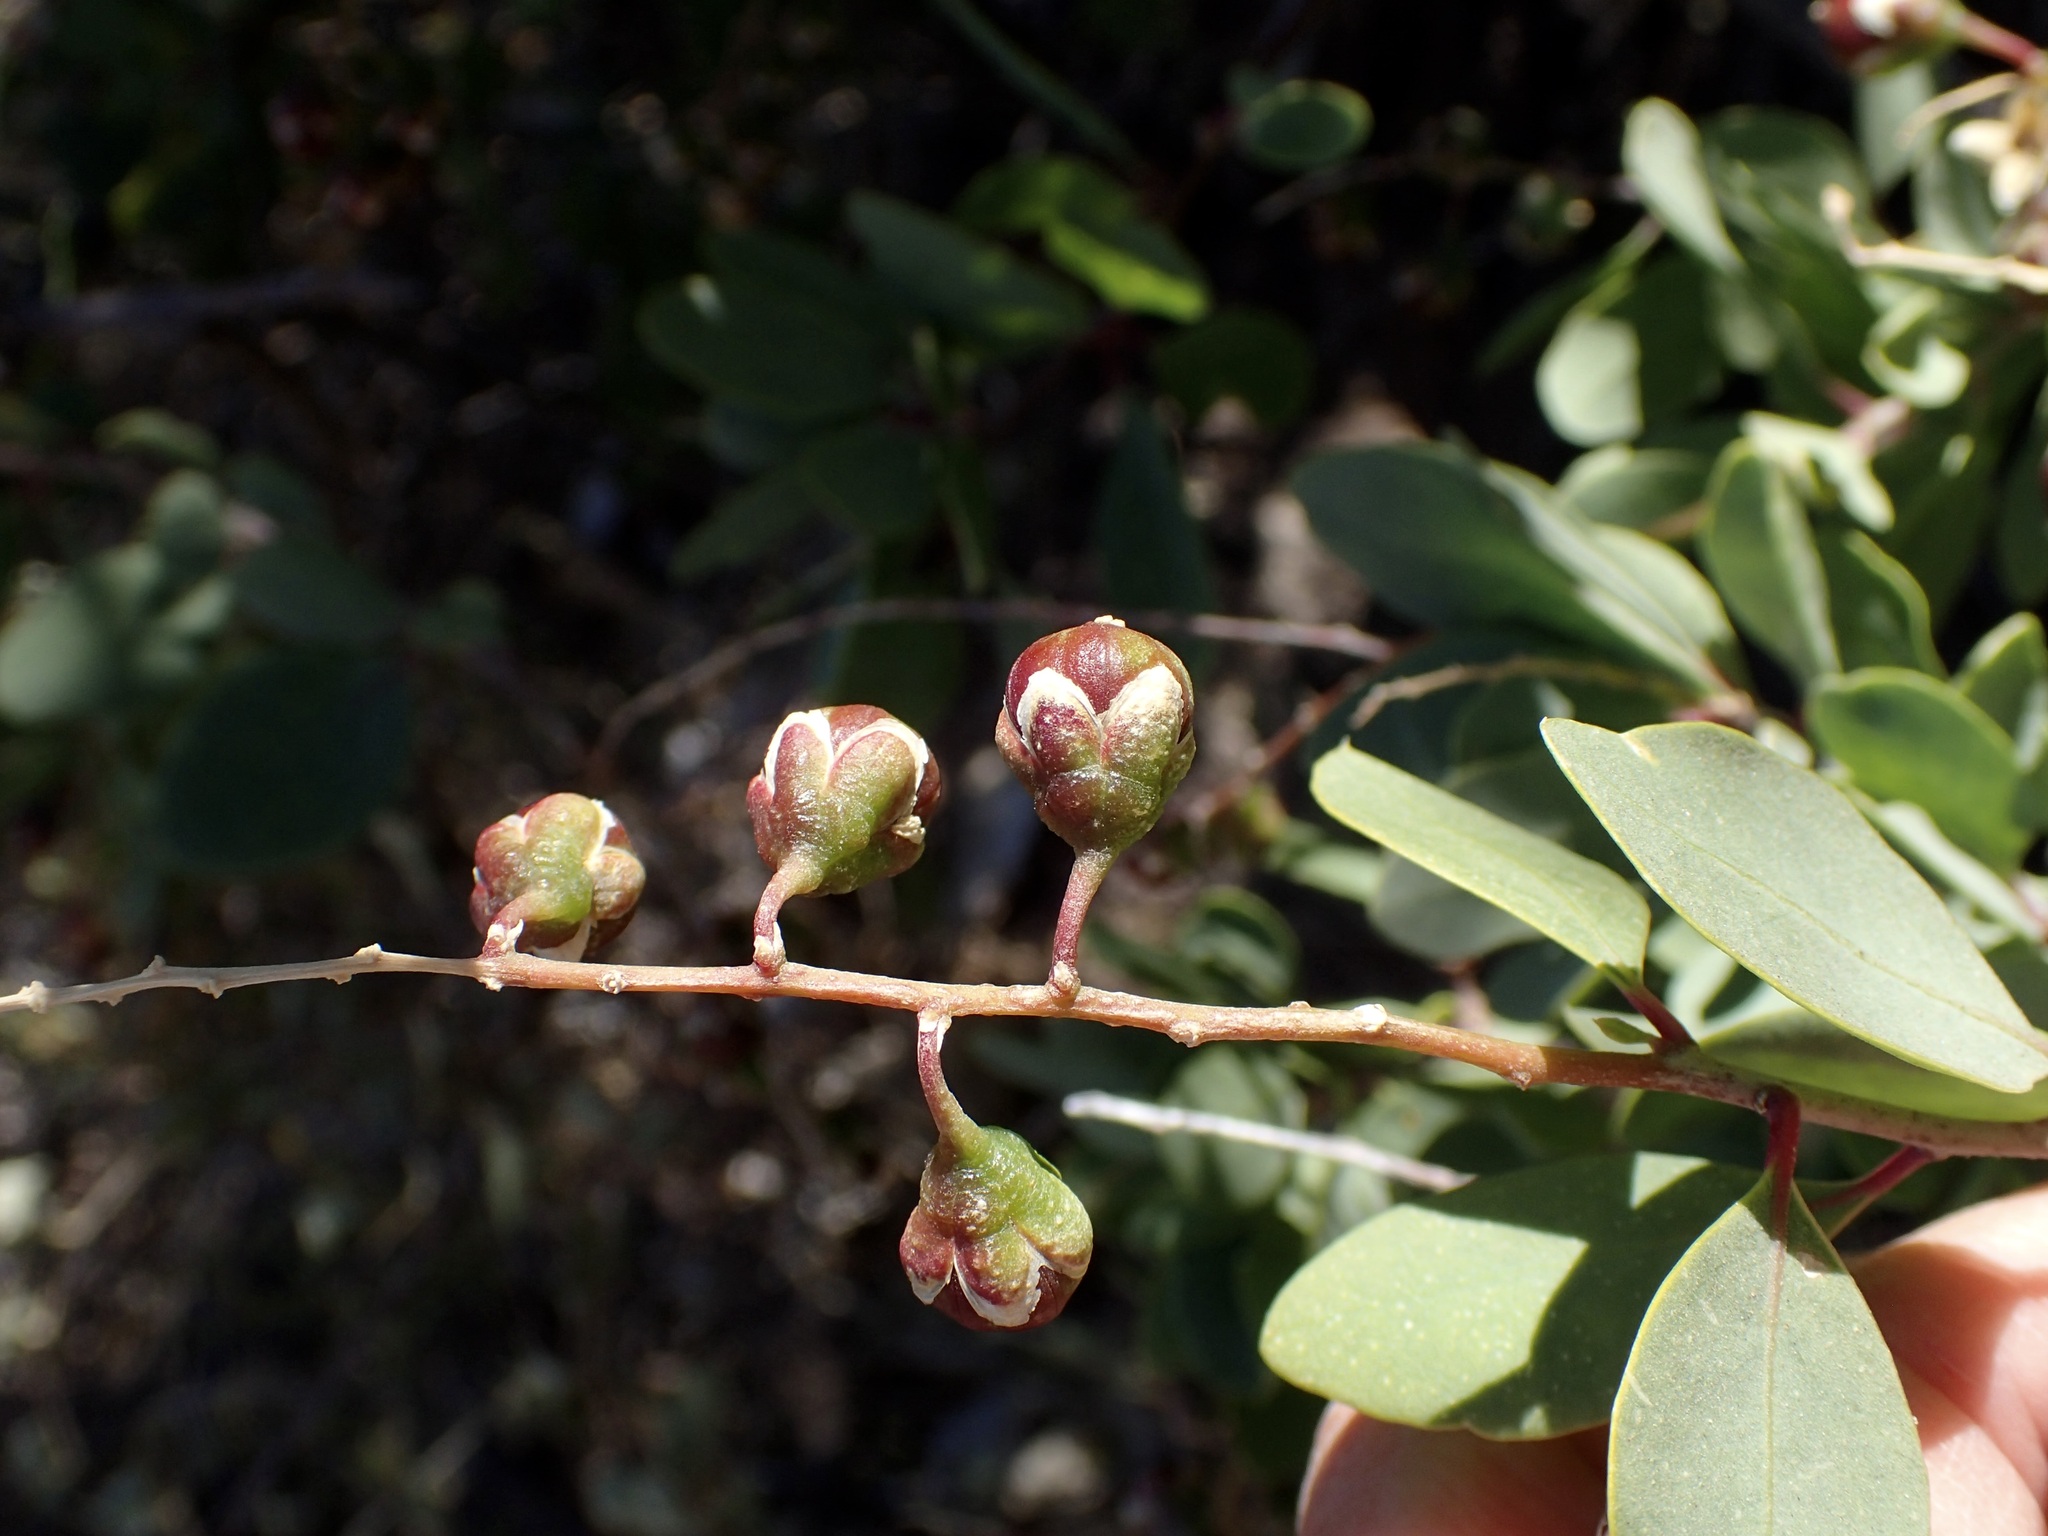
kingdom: Plantae
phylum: Tracheophyta
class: Magnoliopsida
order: Caryophyllales
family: Stegnospermataceae
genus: Stegnosperma
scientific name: Stegnosperma halimifolium
